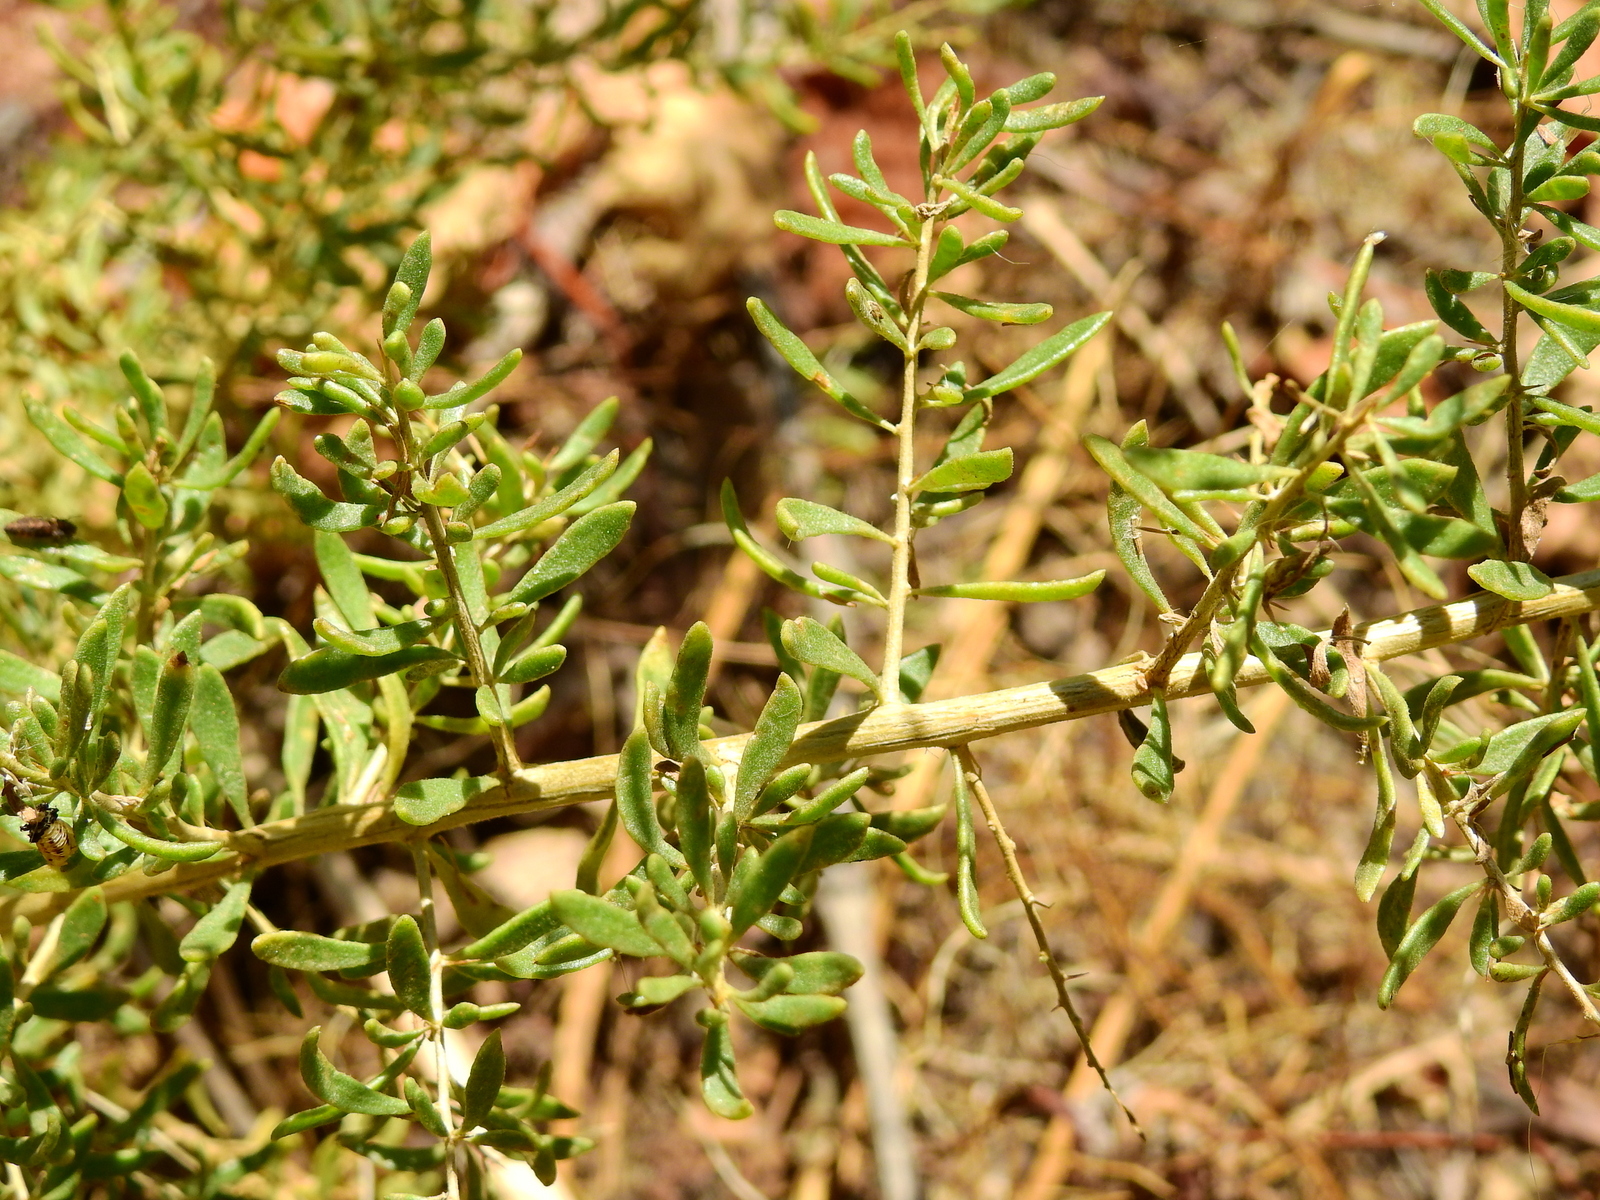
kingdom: Plantae
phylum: Tracheophyta
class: Magnoliopsida
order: Solanales
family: Solanaceae
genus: Lycium
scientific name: Lycium tenuispinosum
